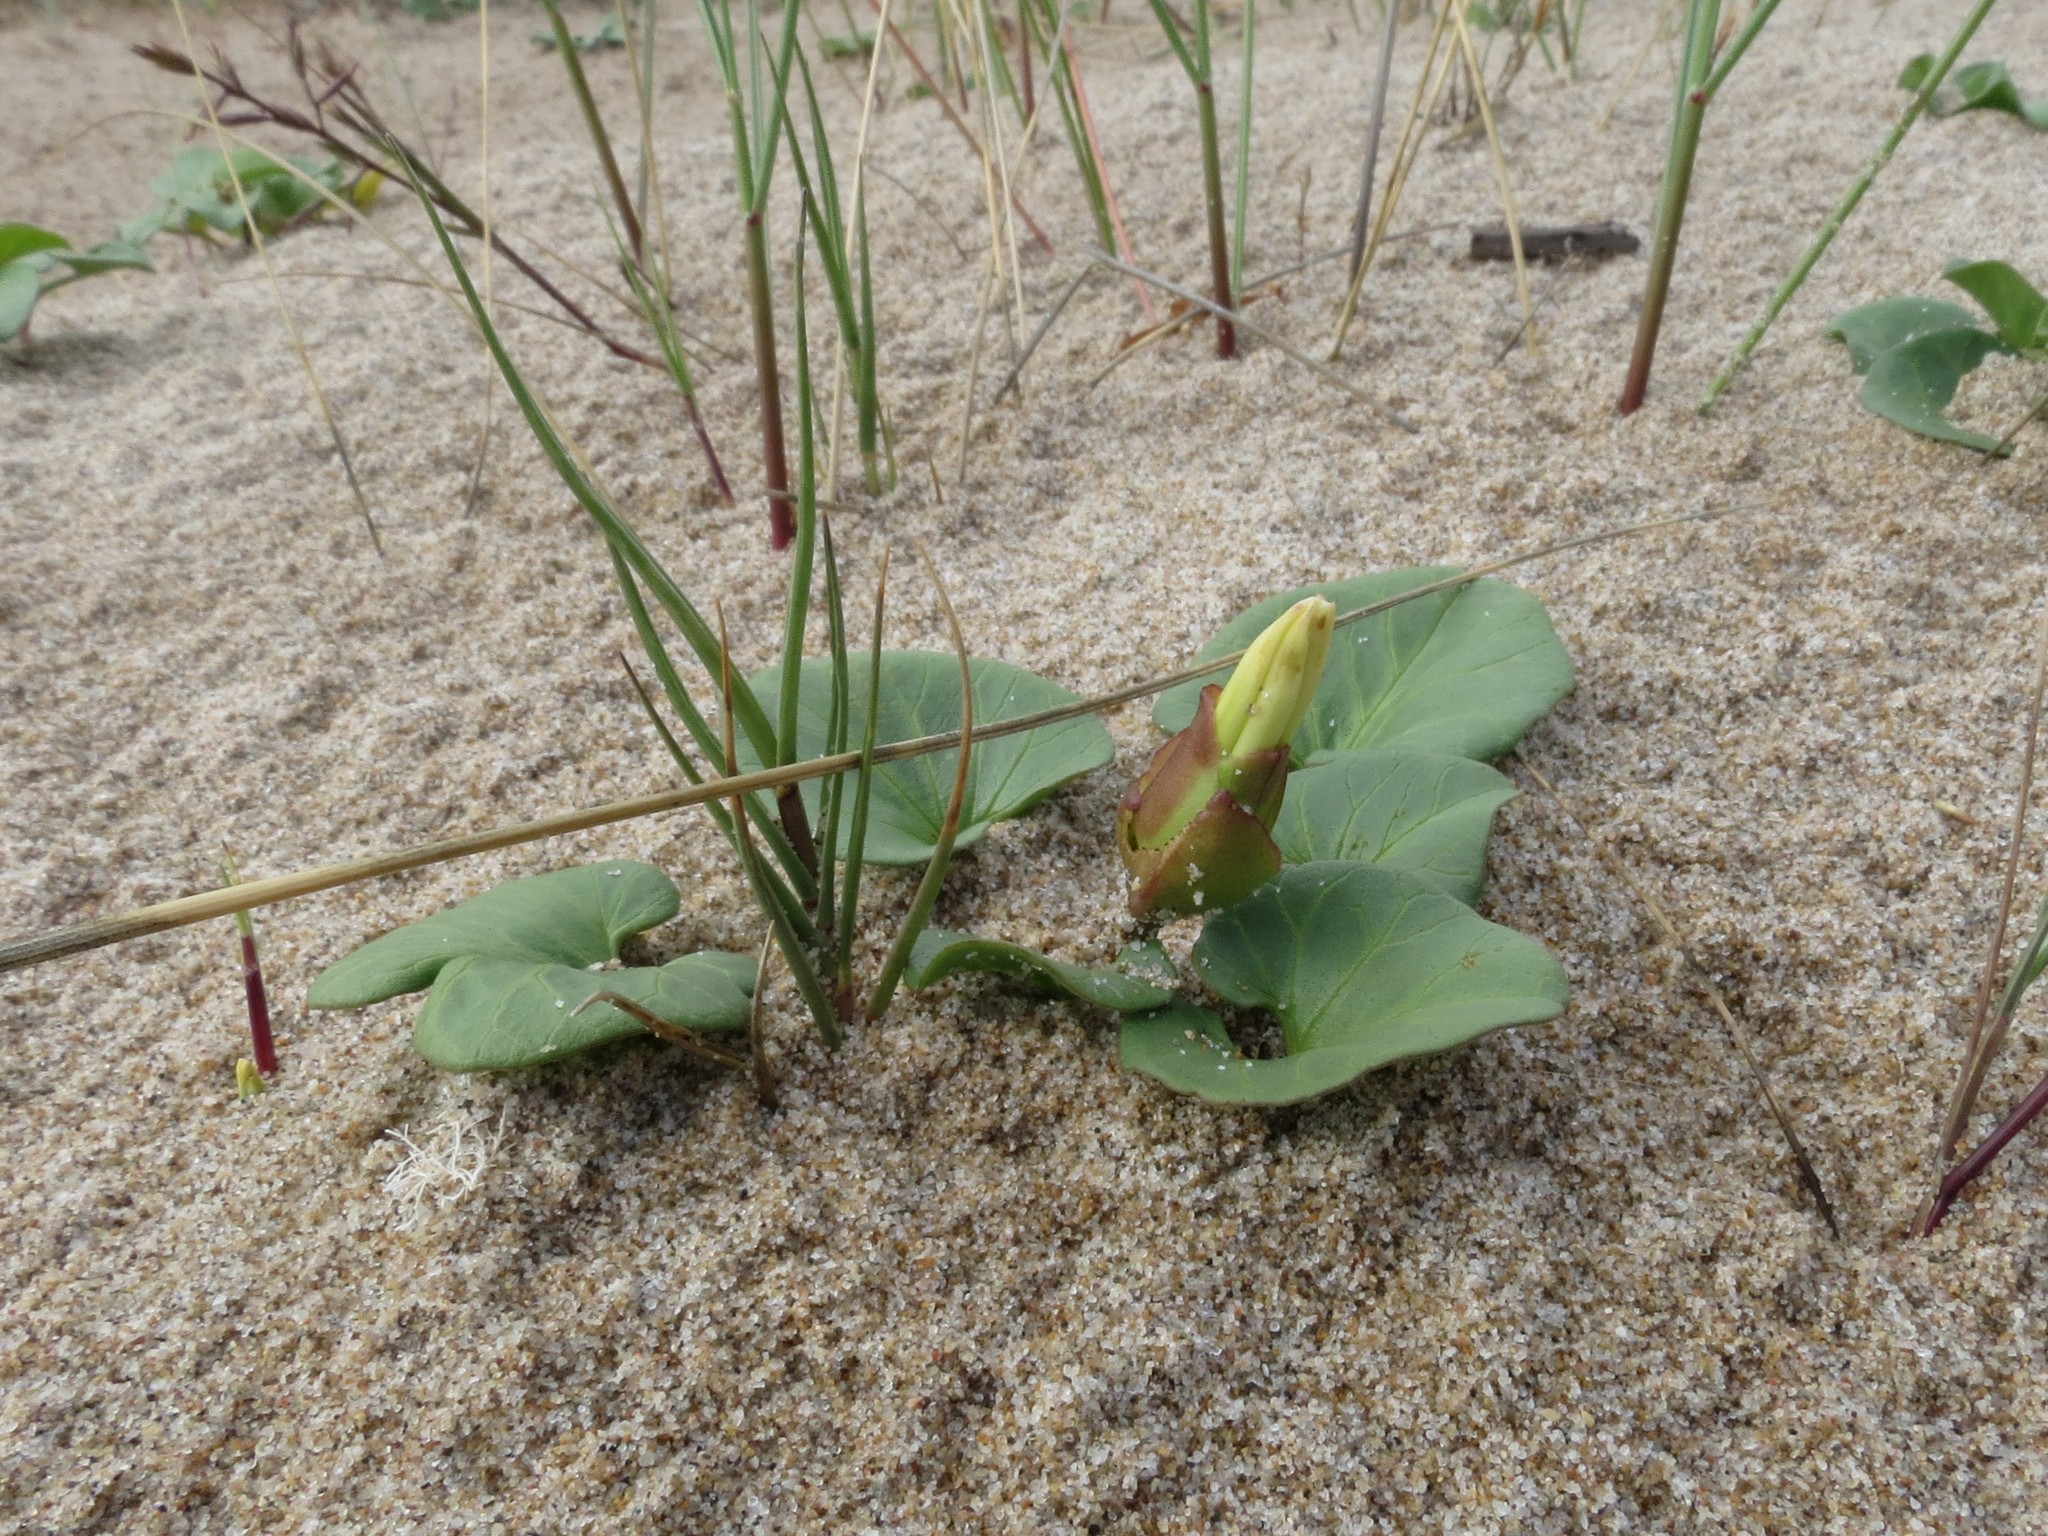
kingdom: Plantae
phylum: Tracheophyta
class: Magnoliopsida
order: Solanales
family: Convolvulaceae
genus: Calystegia
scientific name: Calystegia soldanella
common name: Sea bindweed
